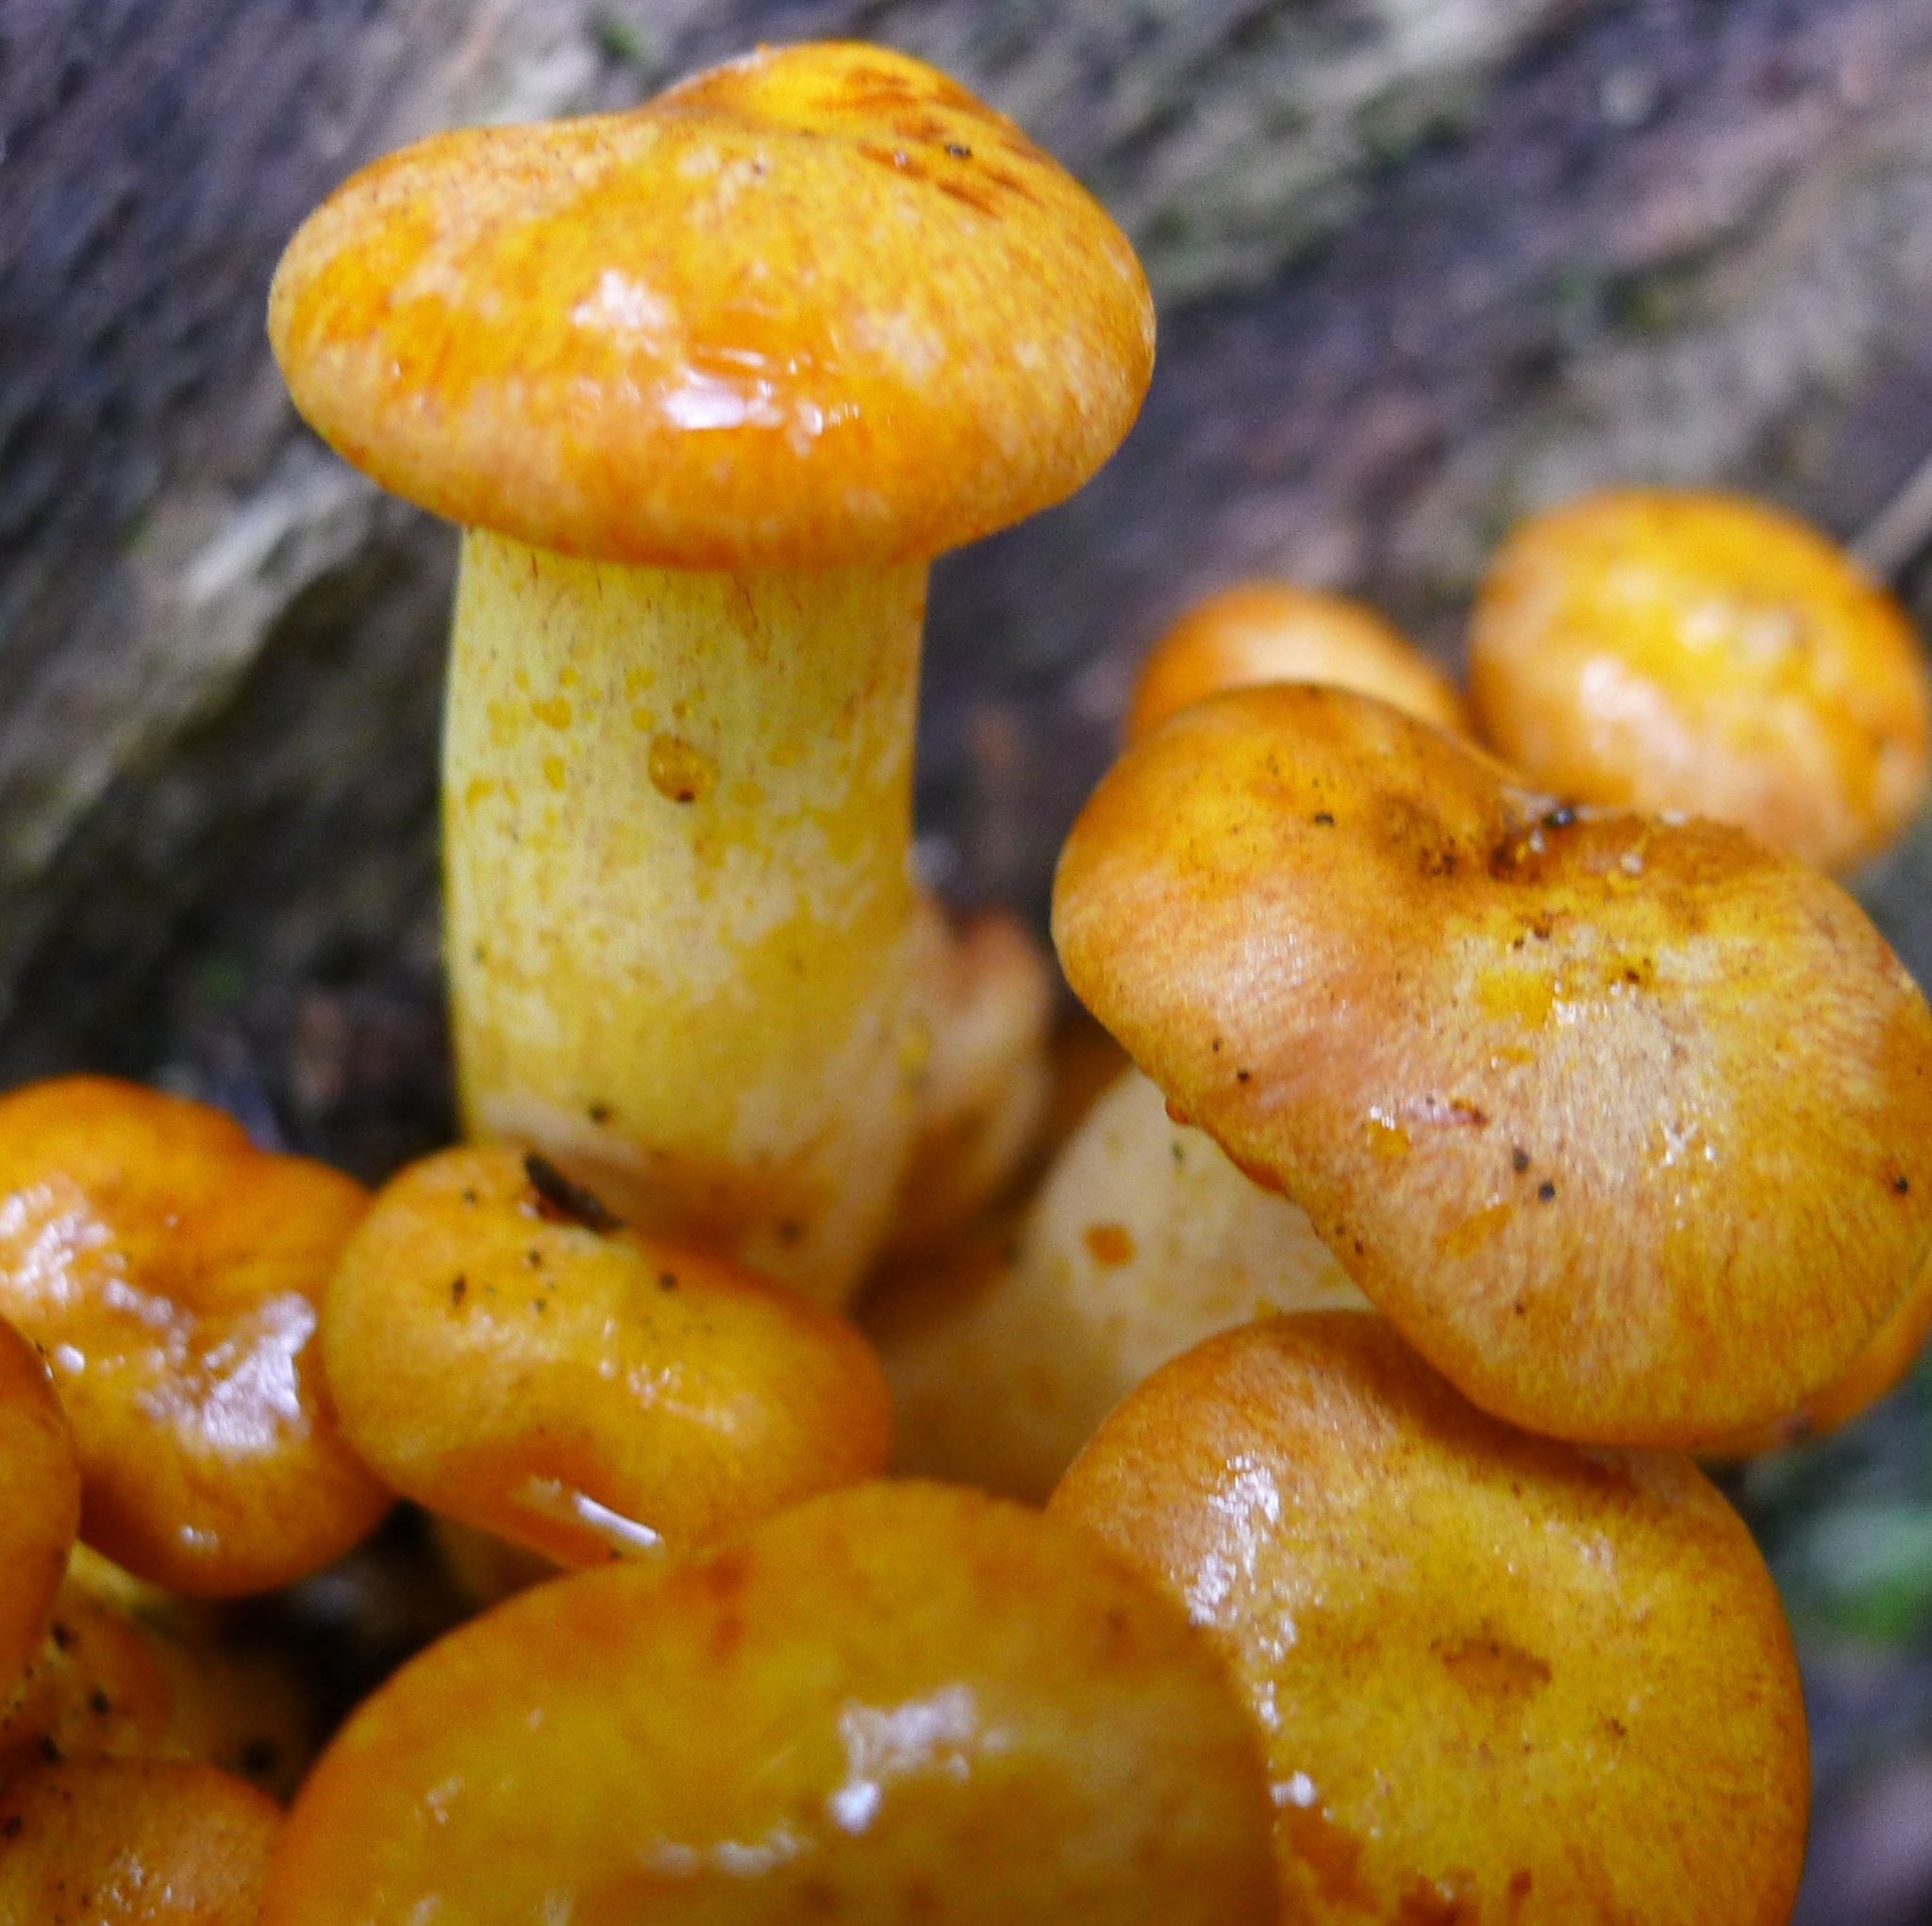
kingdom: Fungi
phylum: Basidiomycota
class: Agaricomycetes
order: Agaricales
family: Omphalotaceae
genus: Omphalotus
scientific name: Omphalotus illudens
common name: Jack o lantern
